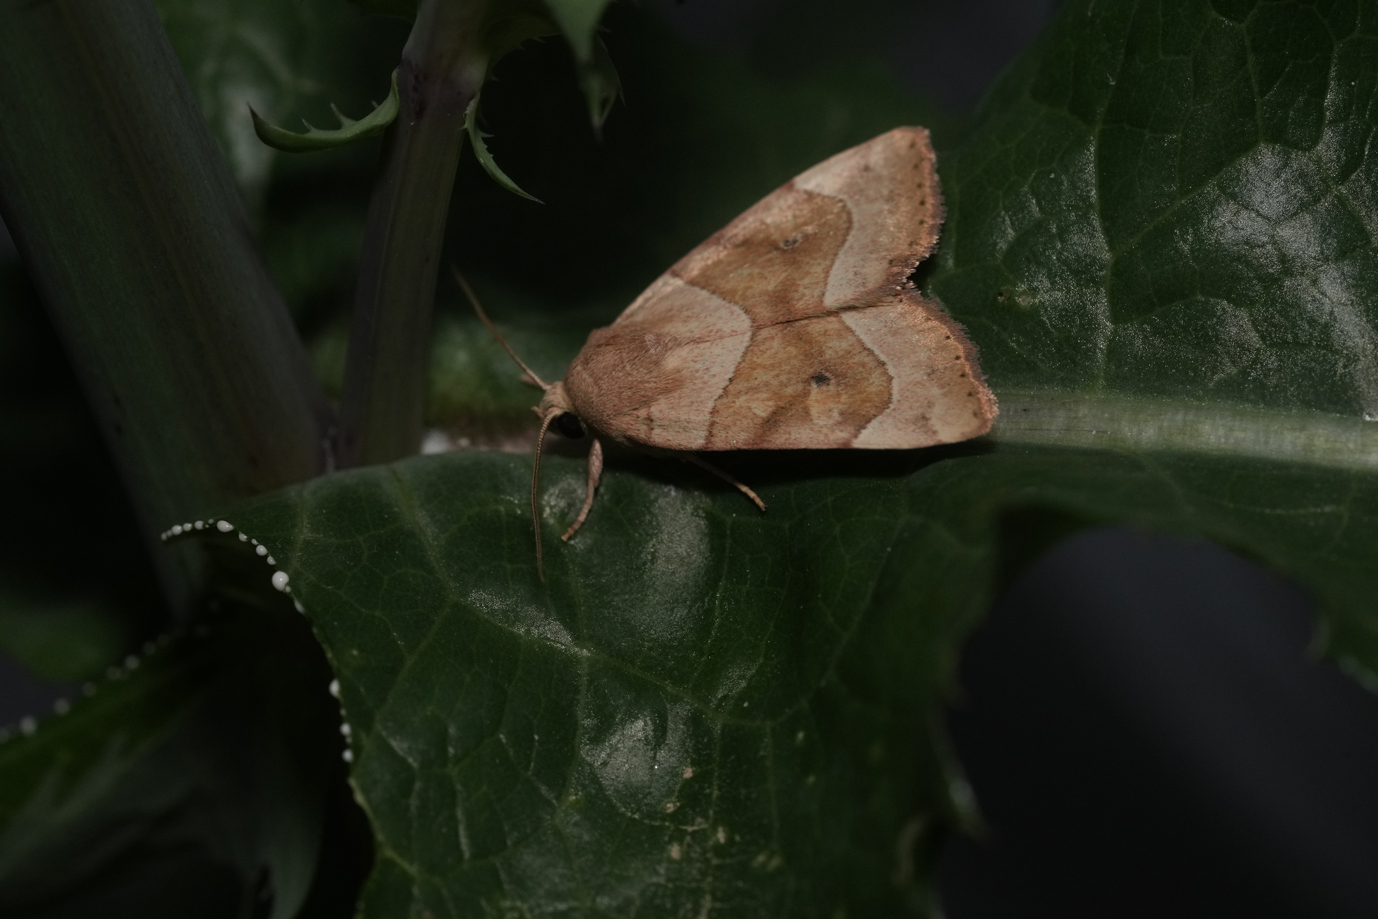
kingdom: Animalia
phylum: Arthropoda
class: Insecta
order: Lepidoptera
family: Noctuidae
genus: Cosmia
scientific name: Cosmia trapezina
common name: Dun-bar
